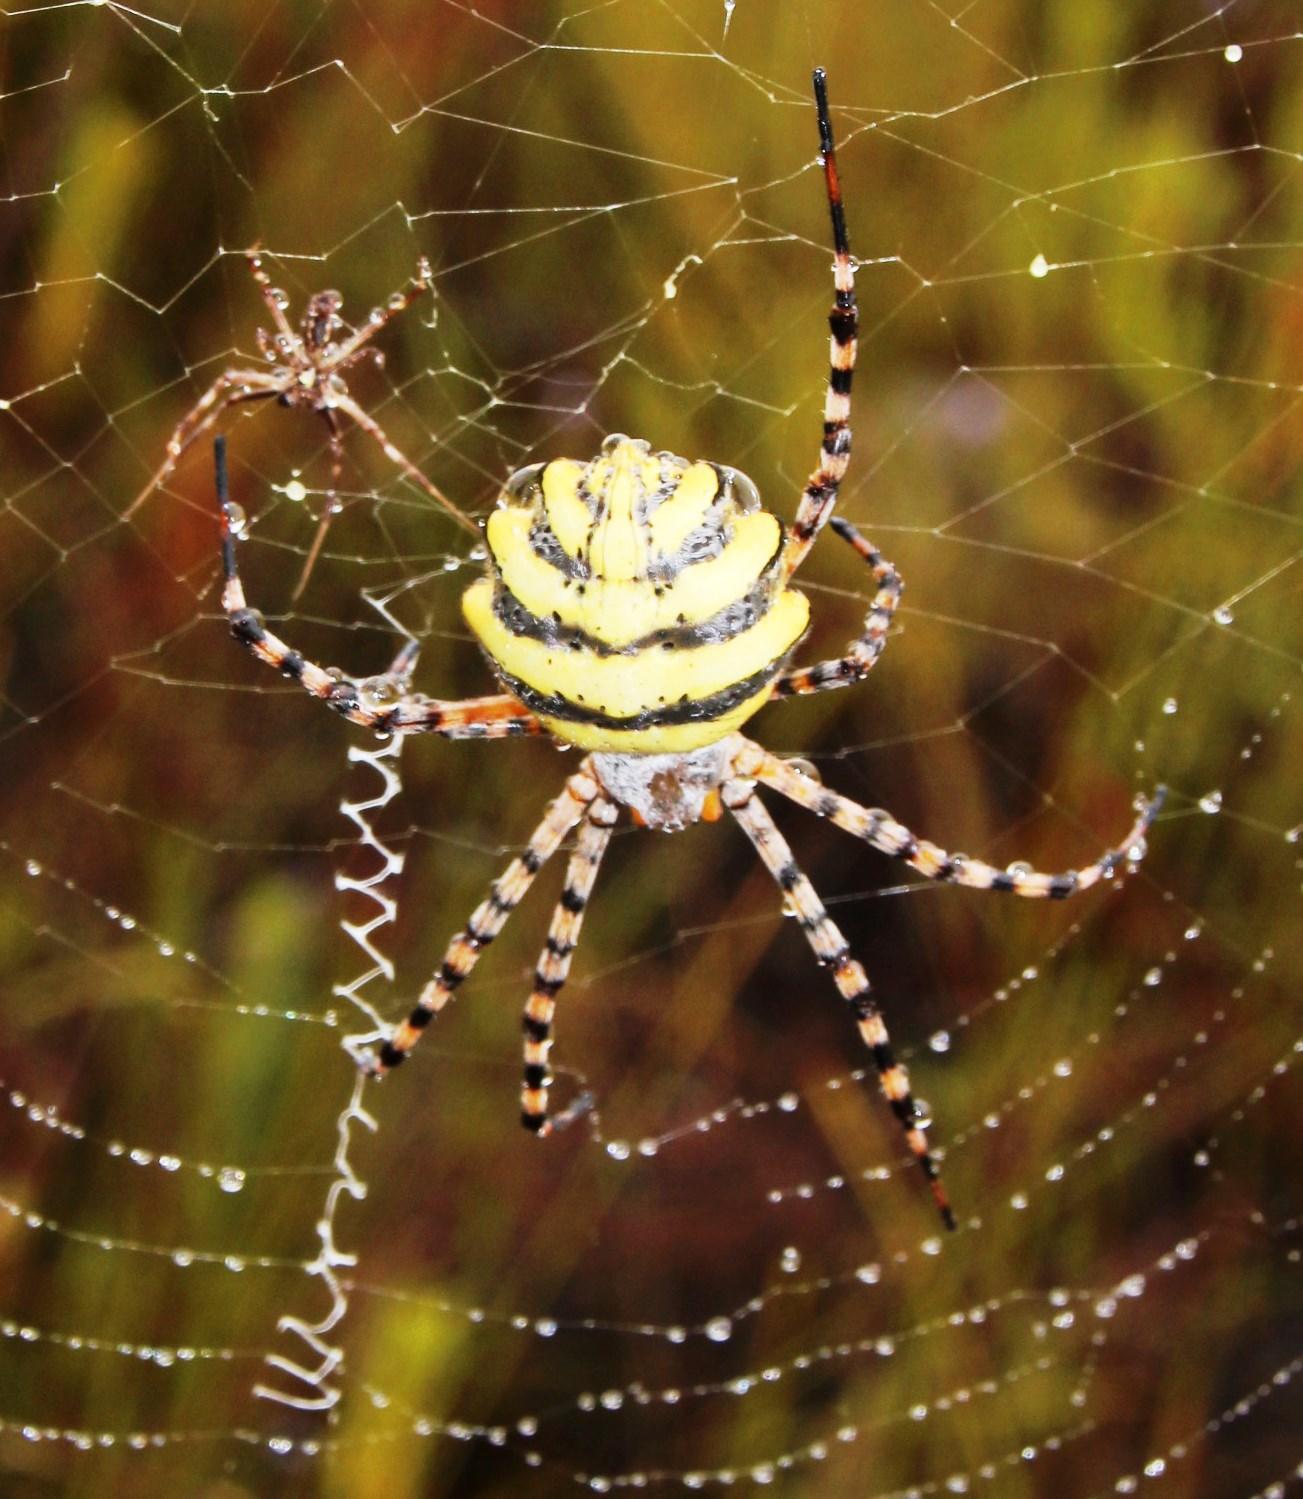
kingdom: Animalia
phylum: Arthropoda
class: Arachnida
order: Araneae
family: Araneidae
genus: Argiope
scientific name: Argiope australis
